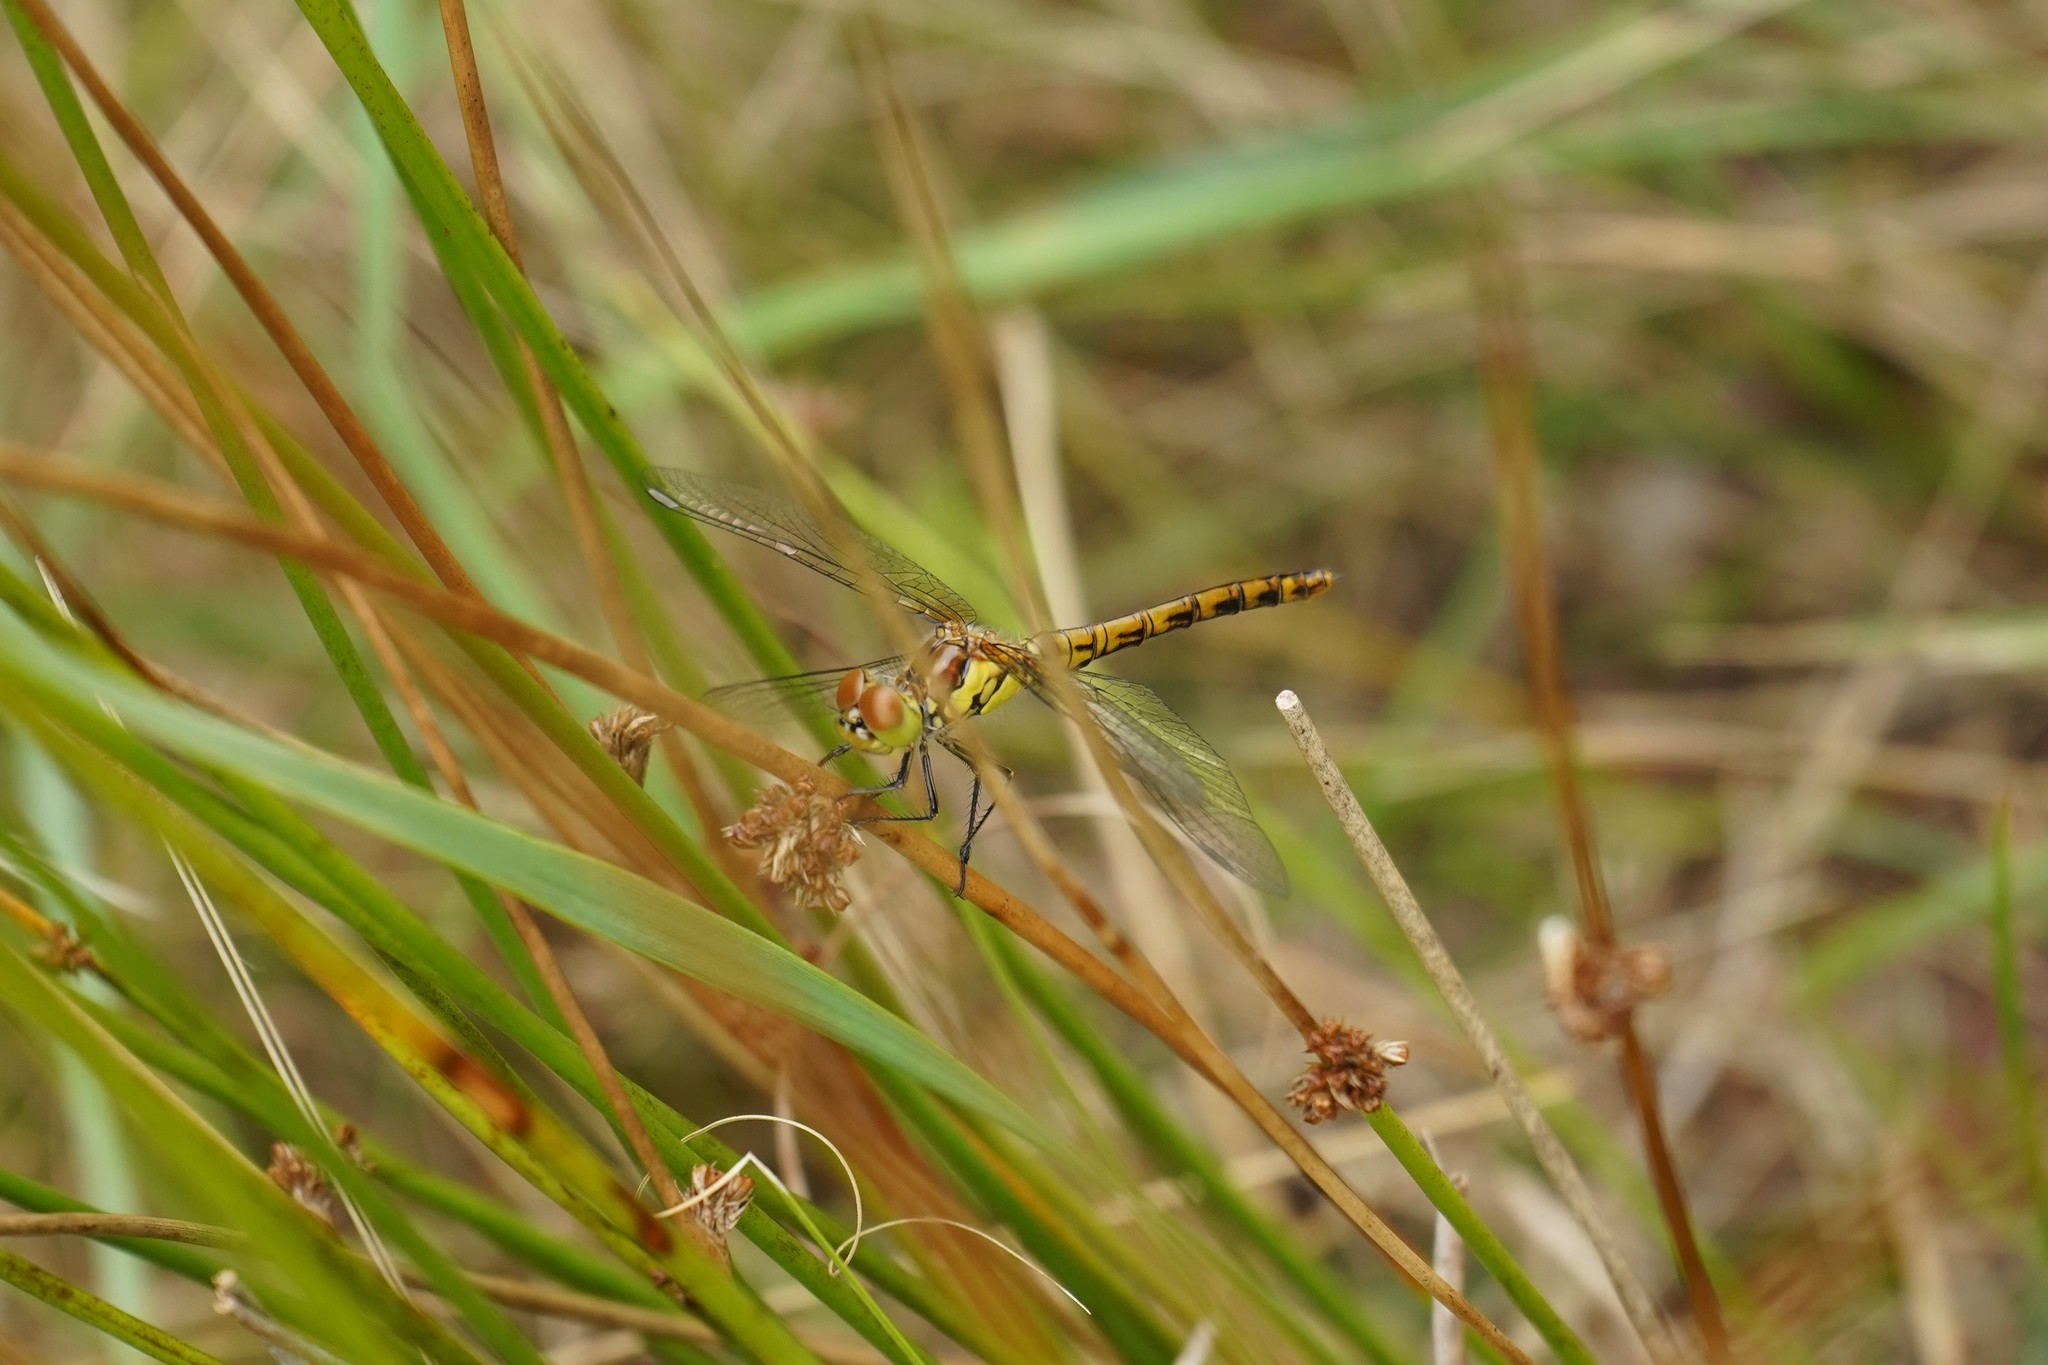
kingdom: Animalia
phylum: Arthropoda
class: Insecta
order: Odonata
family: Libellulidae
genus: Sympetrum
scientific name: Sympetrum striolatum
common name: Common darter
